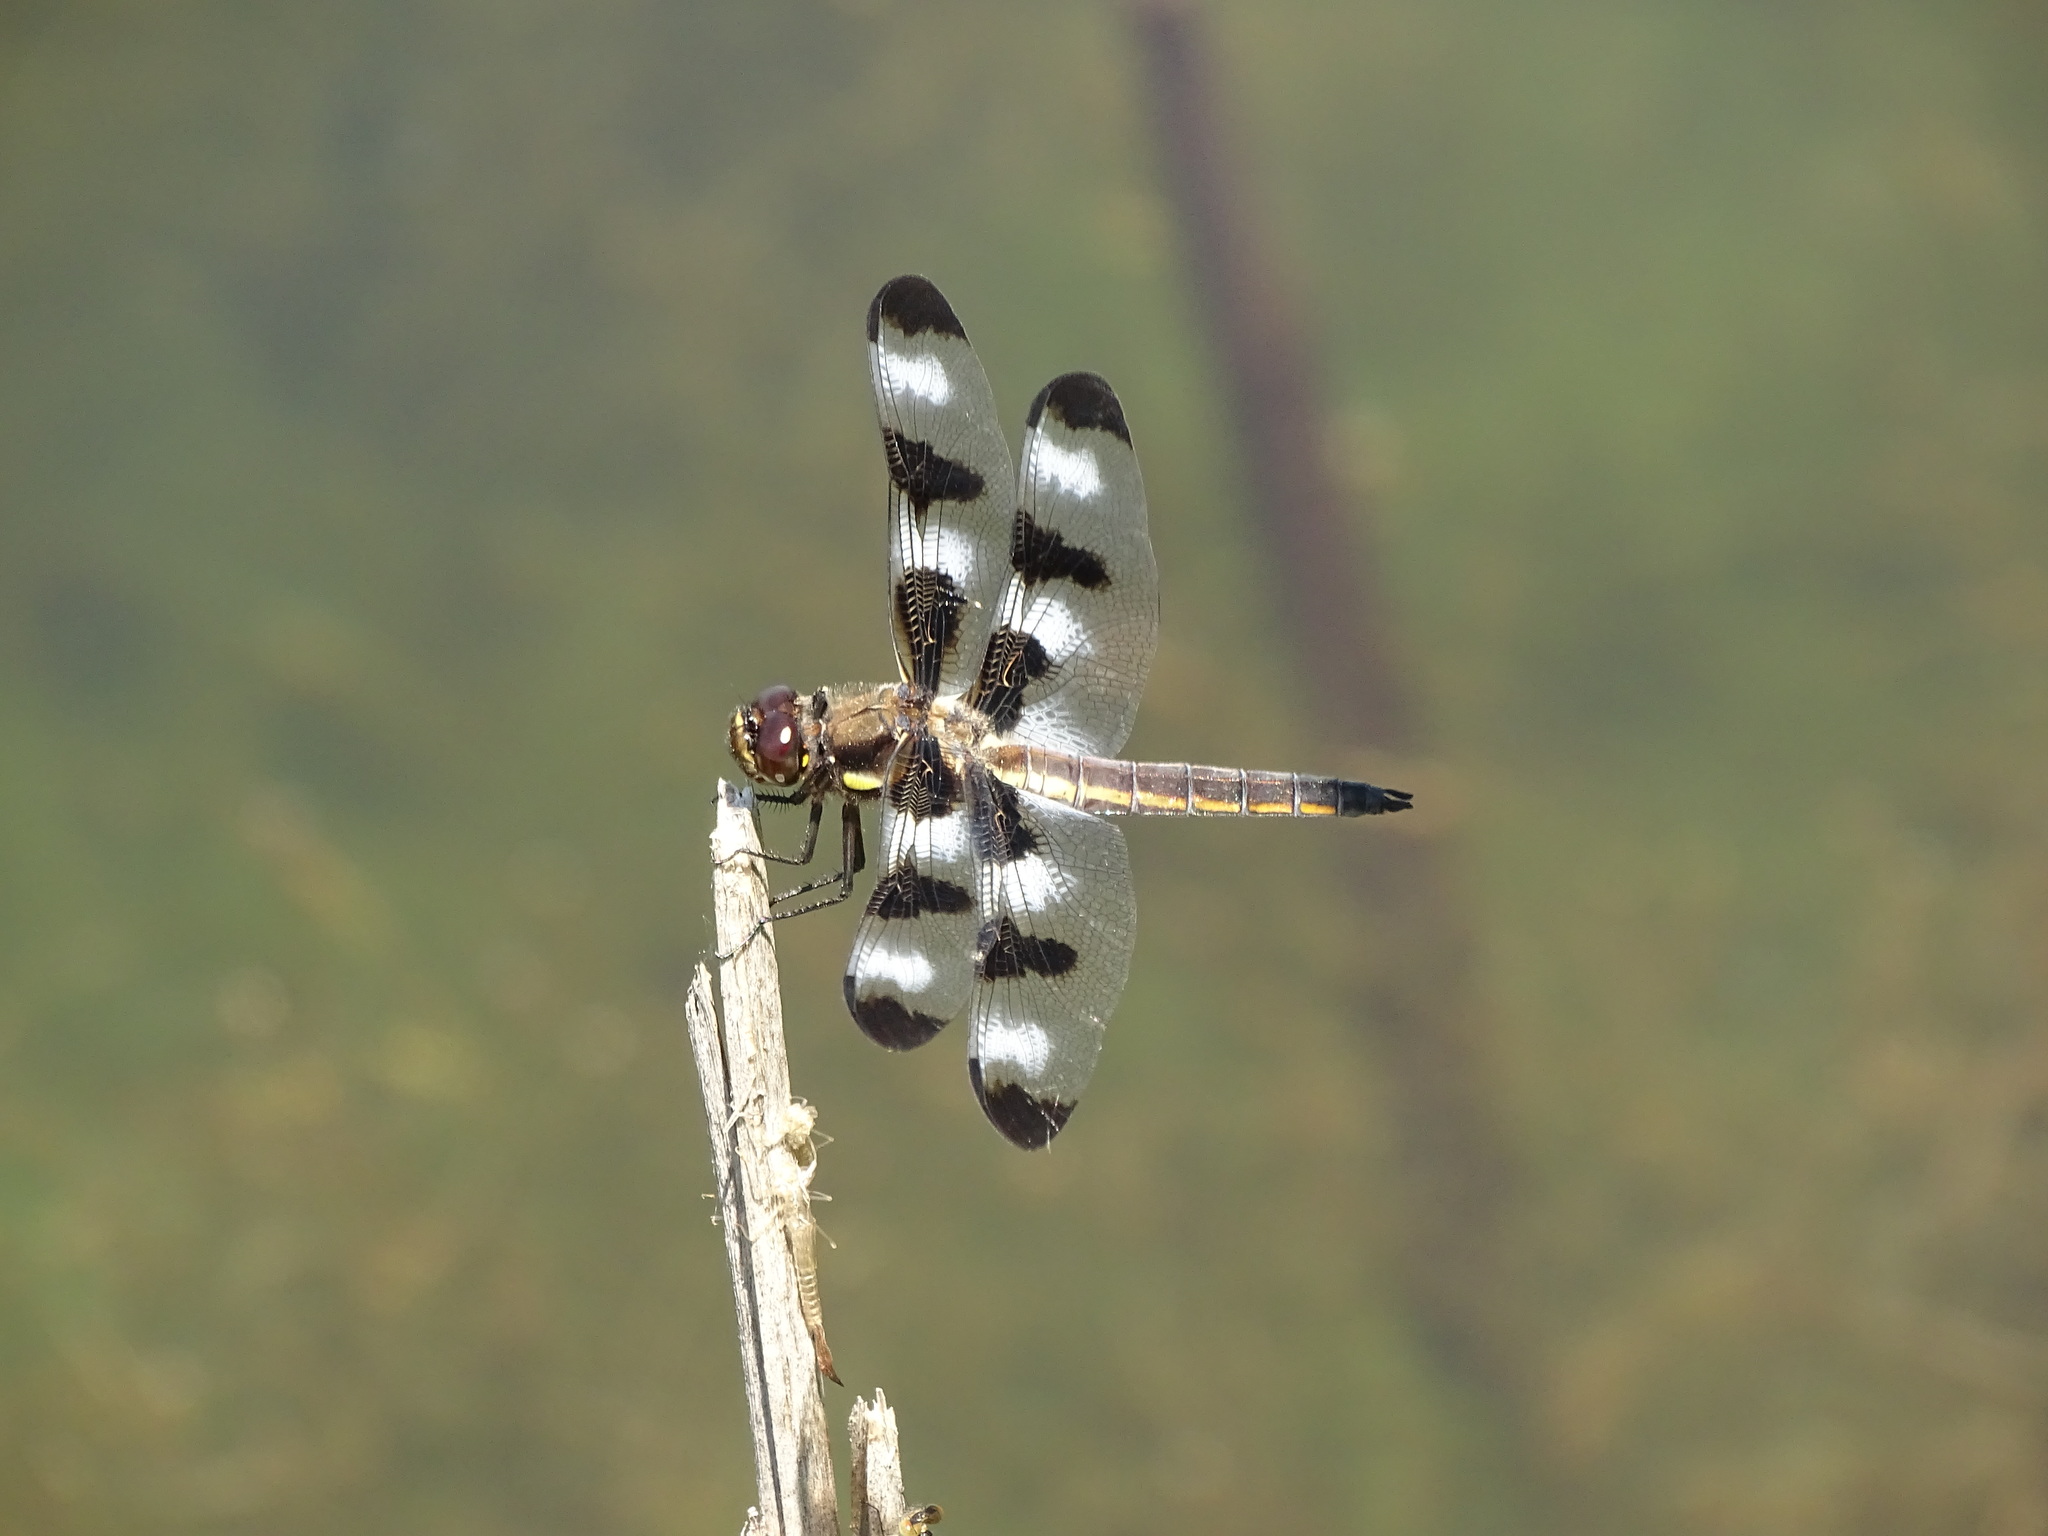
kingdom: Animalia
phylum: Arthropoda
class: Insecta
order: Odonata
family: Libellulidae
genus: Libellula
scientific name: Libellula pulchella
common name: Twelve-spotted skimmer
